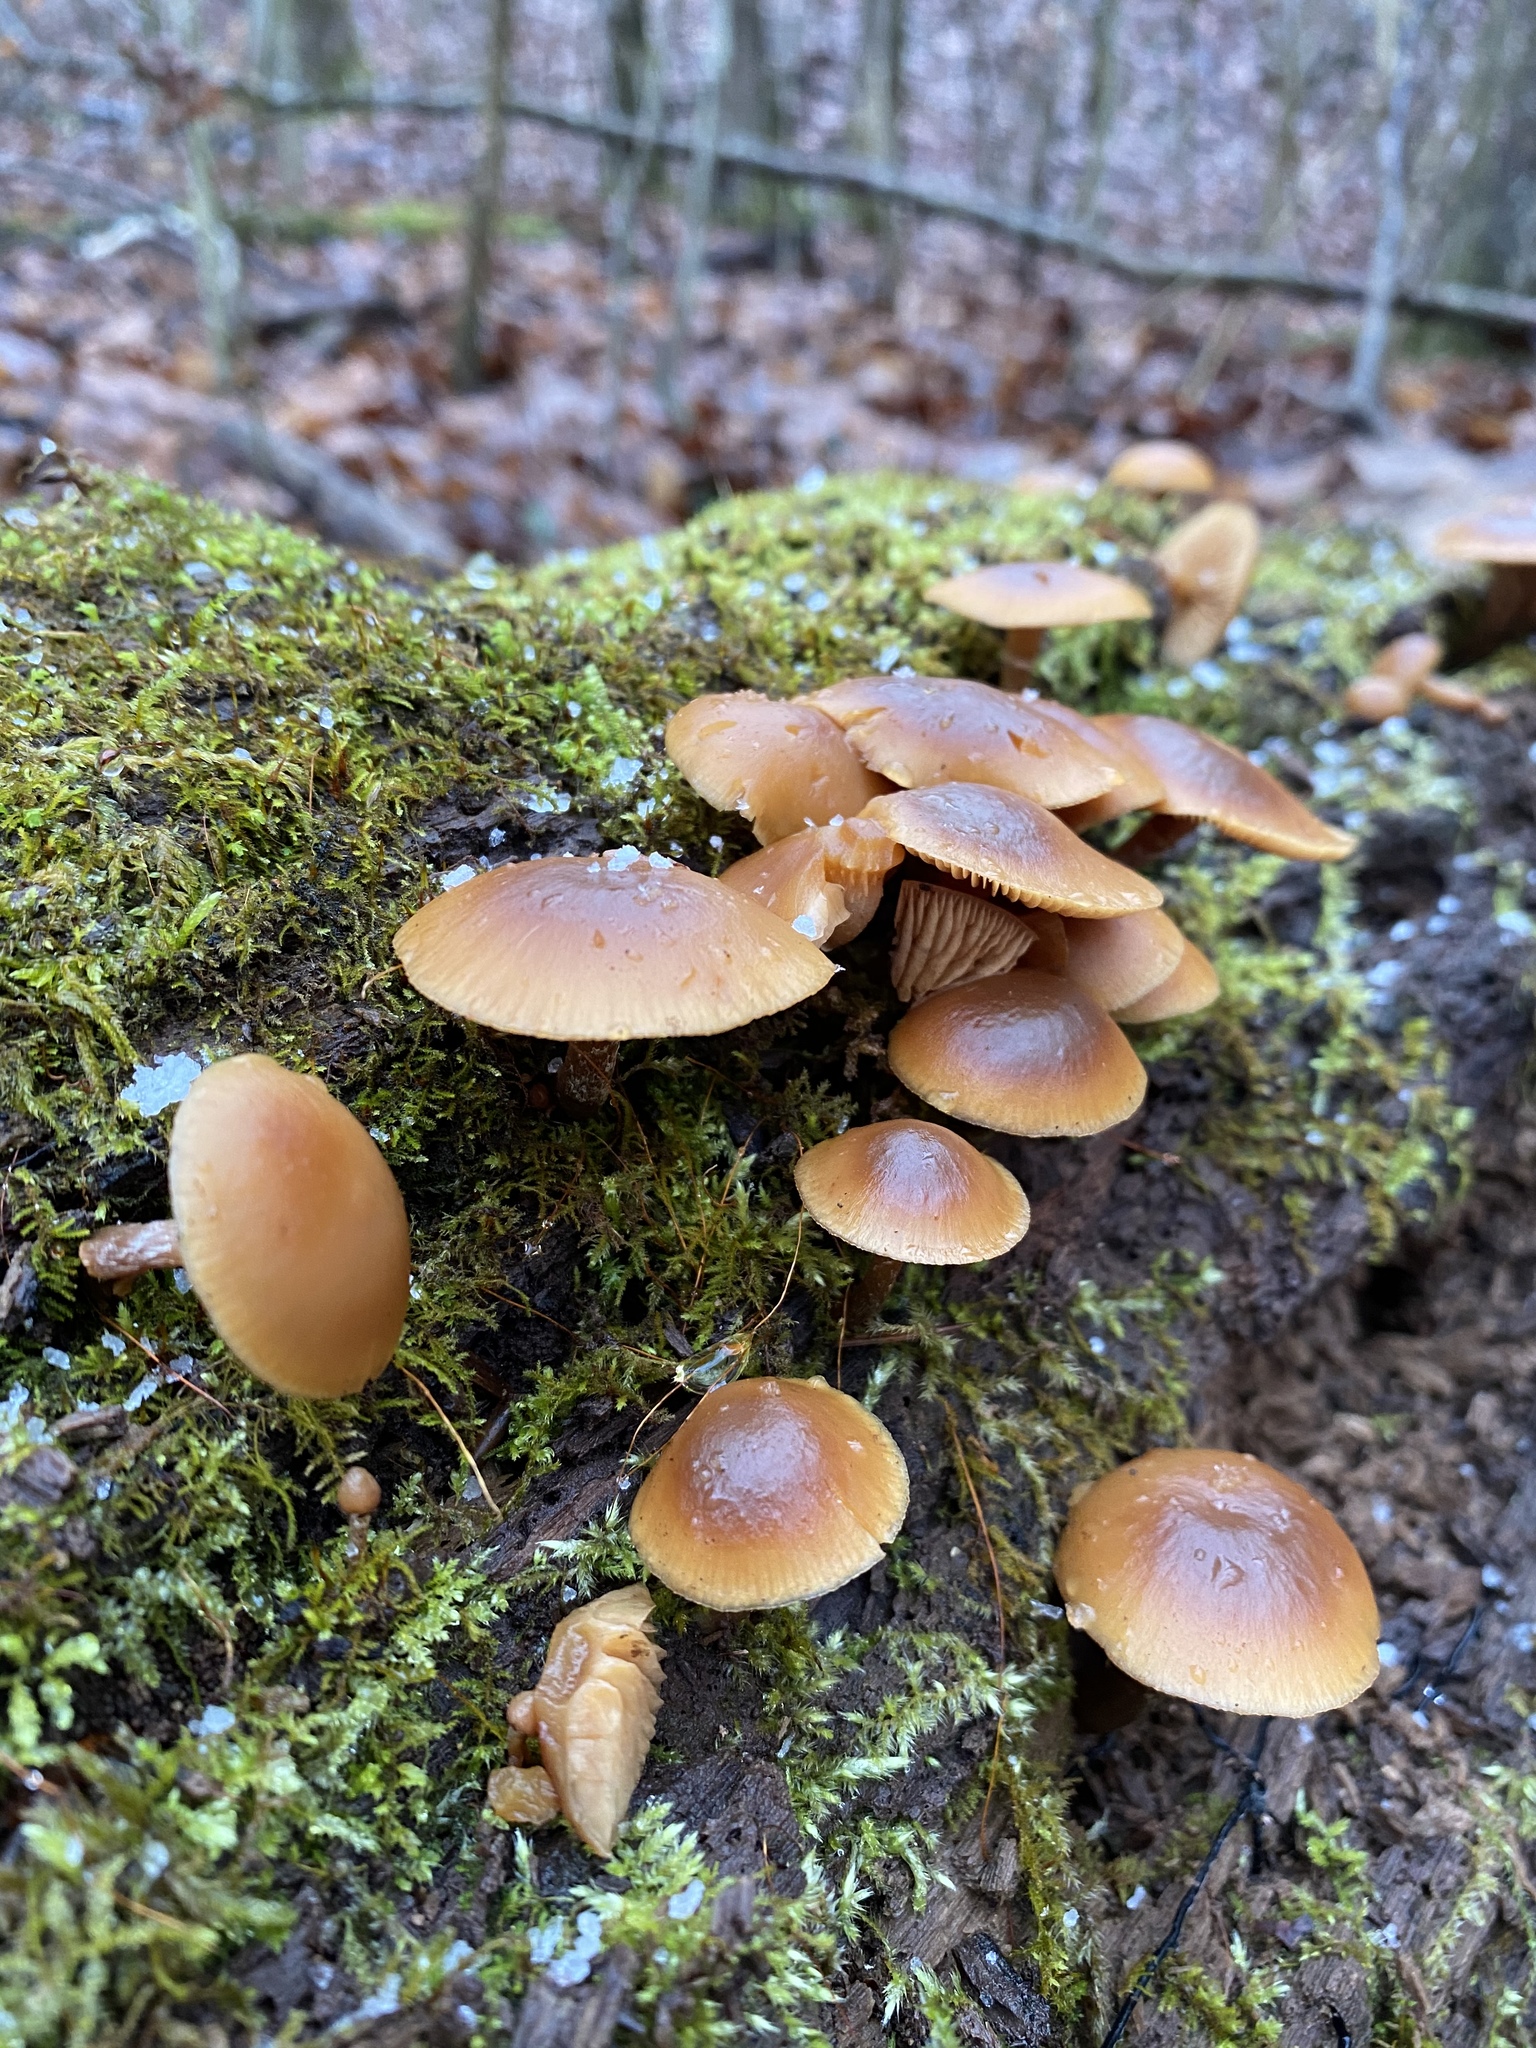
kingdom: Fungi
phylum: Basidiomycota
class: Agaricomycetes
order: Agaricales
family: Hymenogastraceae
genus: Galerina
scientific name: Galerina marginata
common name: Funeral bell
